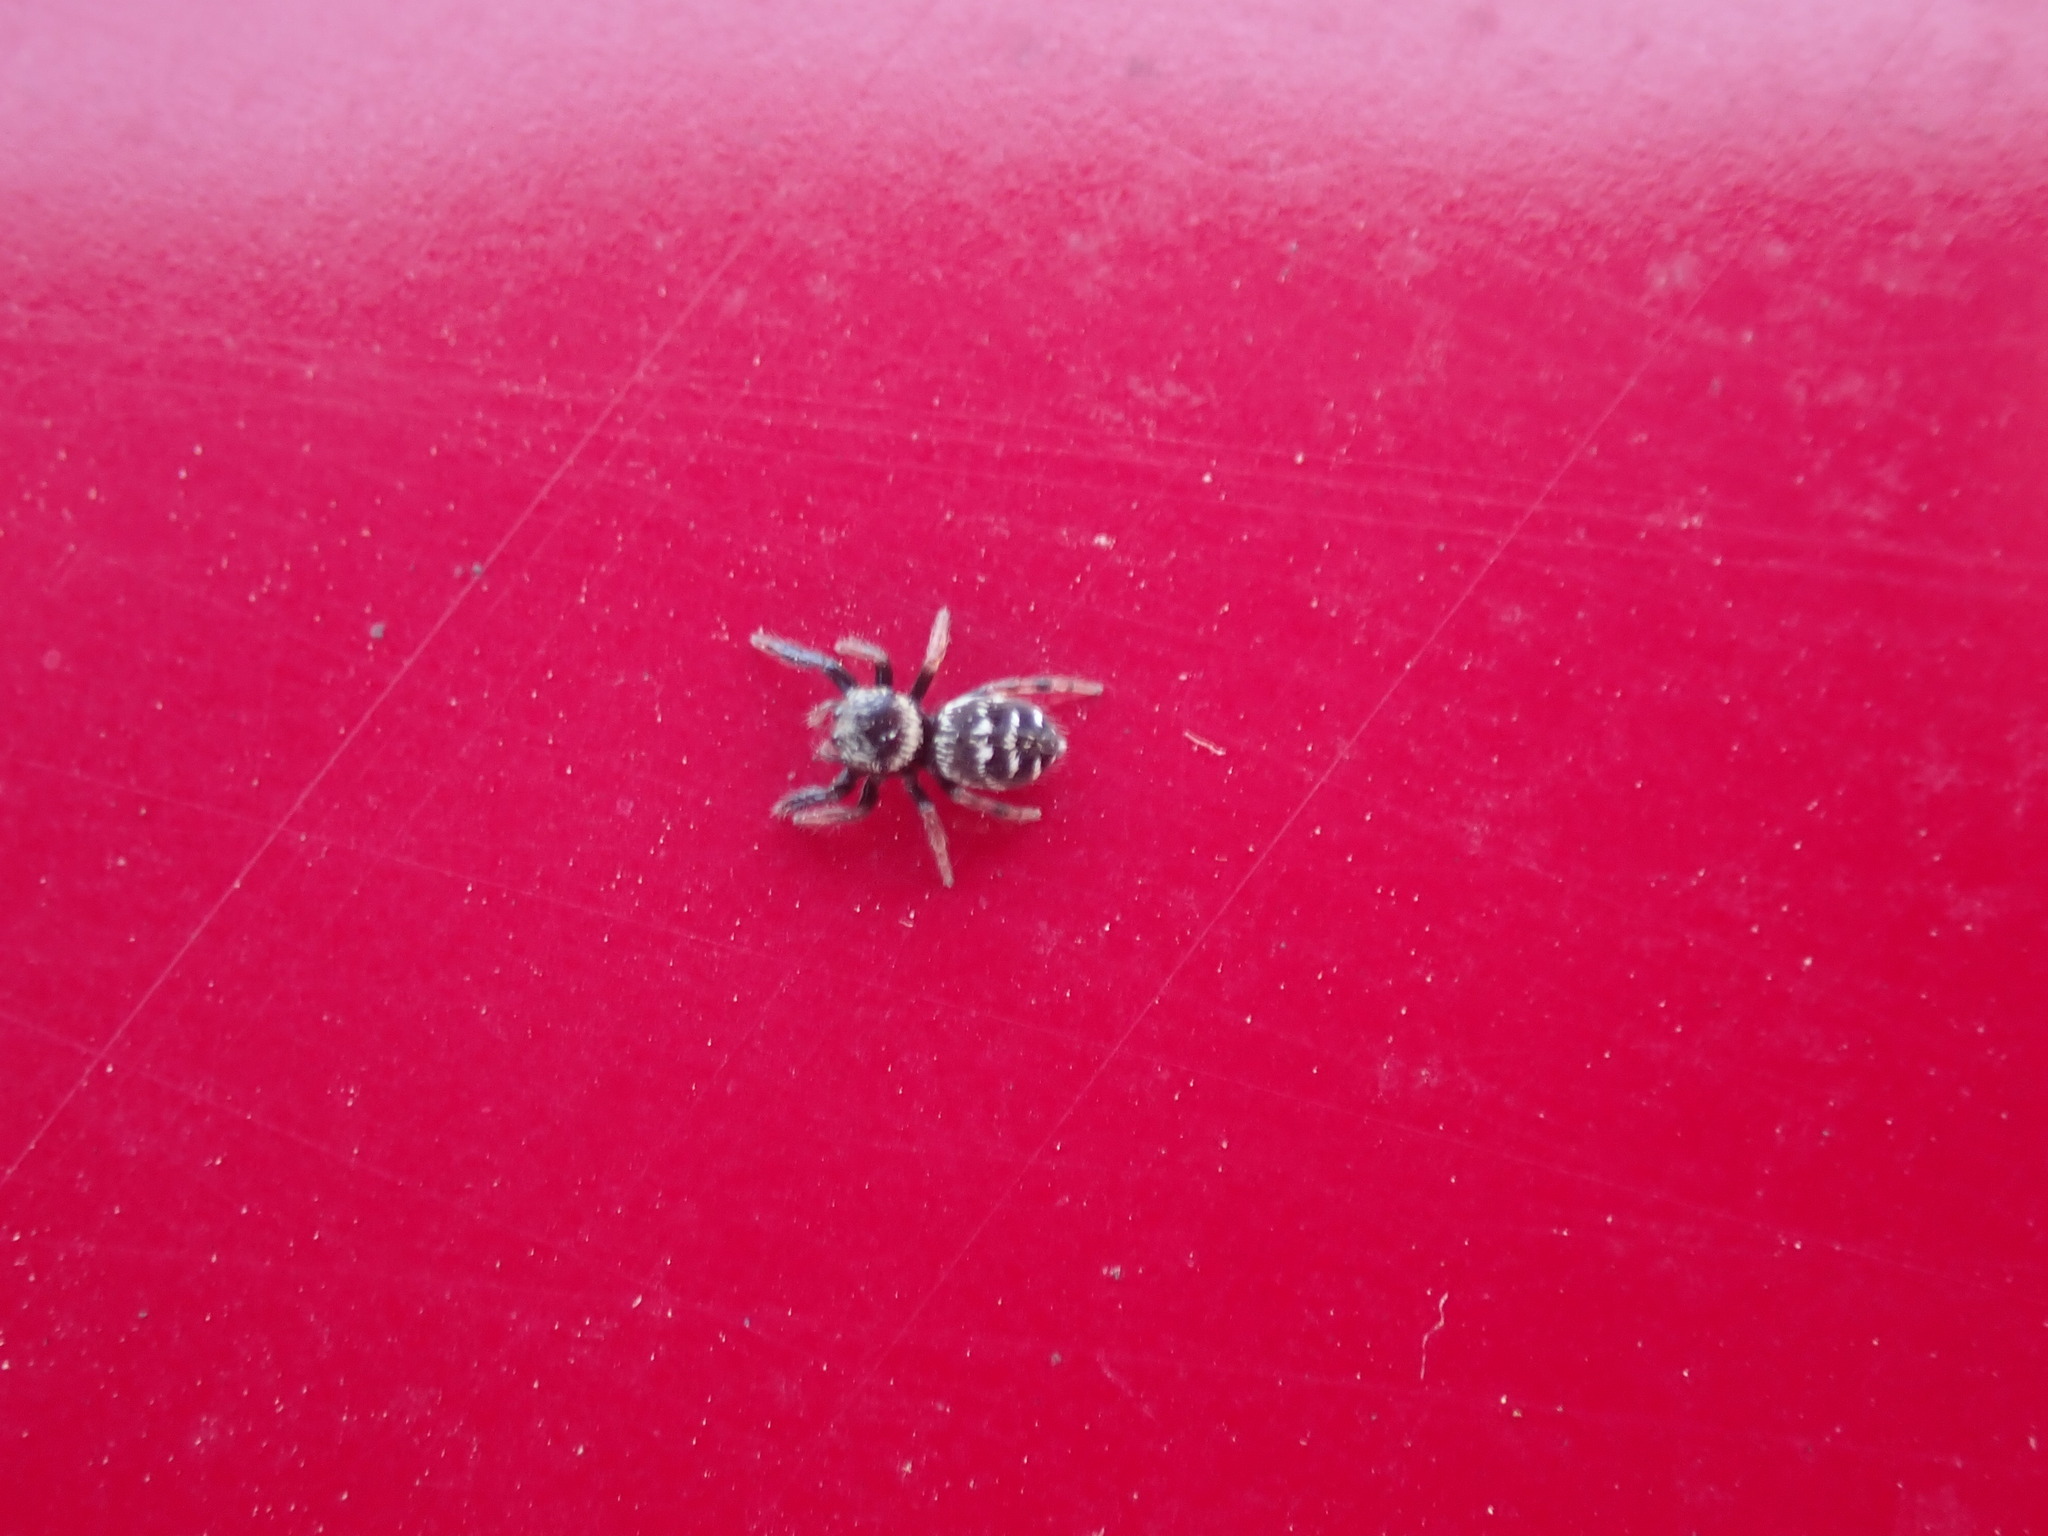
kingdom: Animalia
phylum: Arthropoda
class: Arachnida
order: Araneae
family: Salticidae
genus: Paraphidippus
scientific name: Paraphidippus aurantius
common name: Jumping spiders
